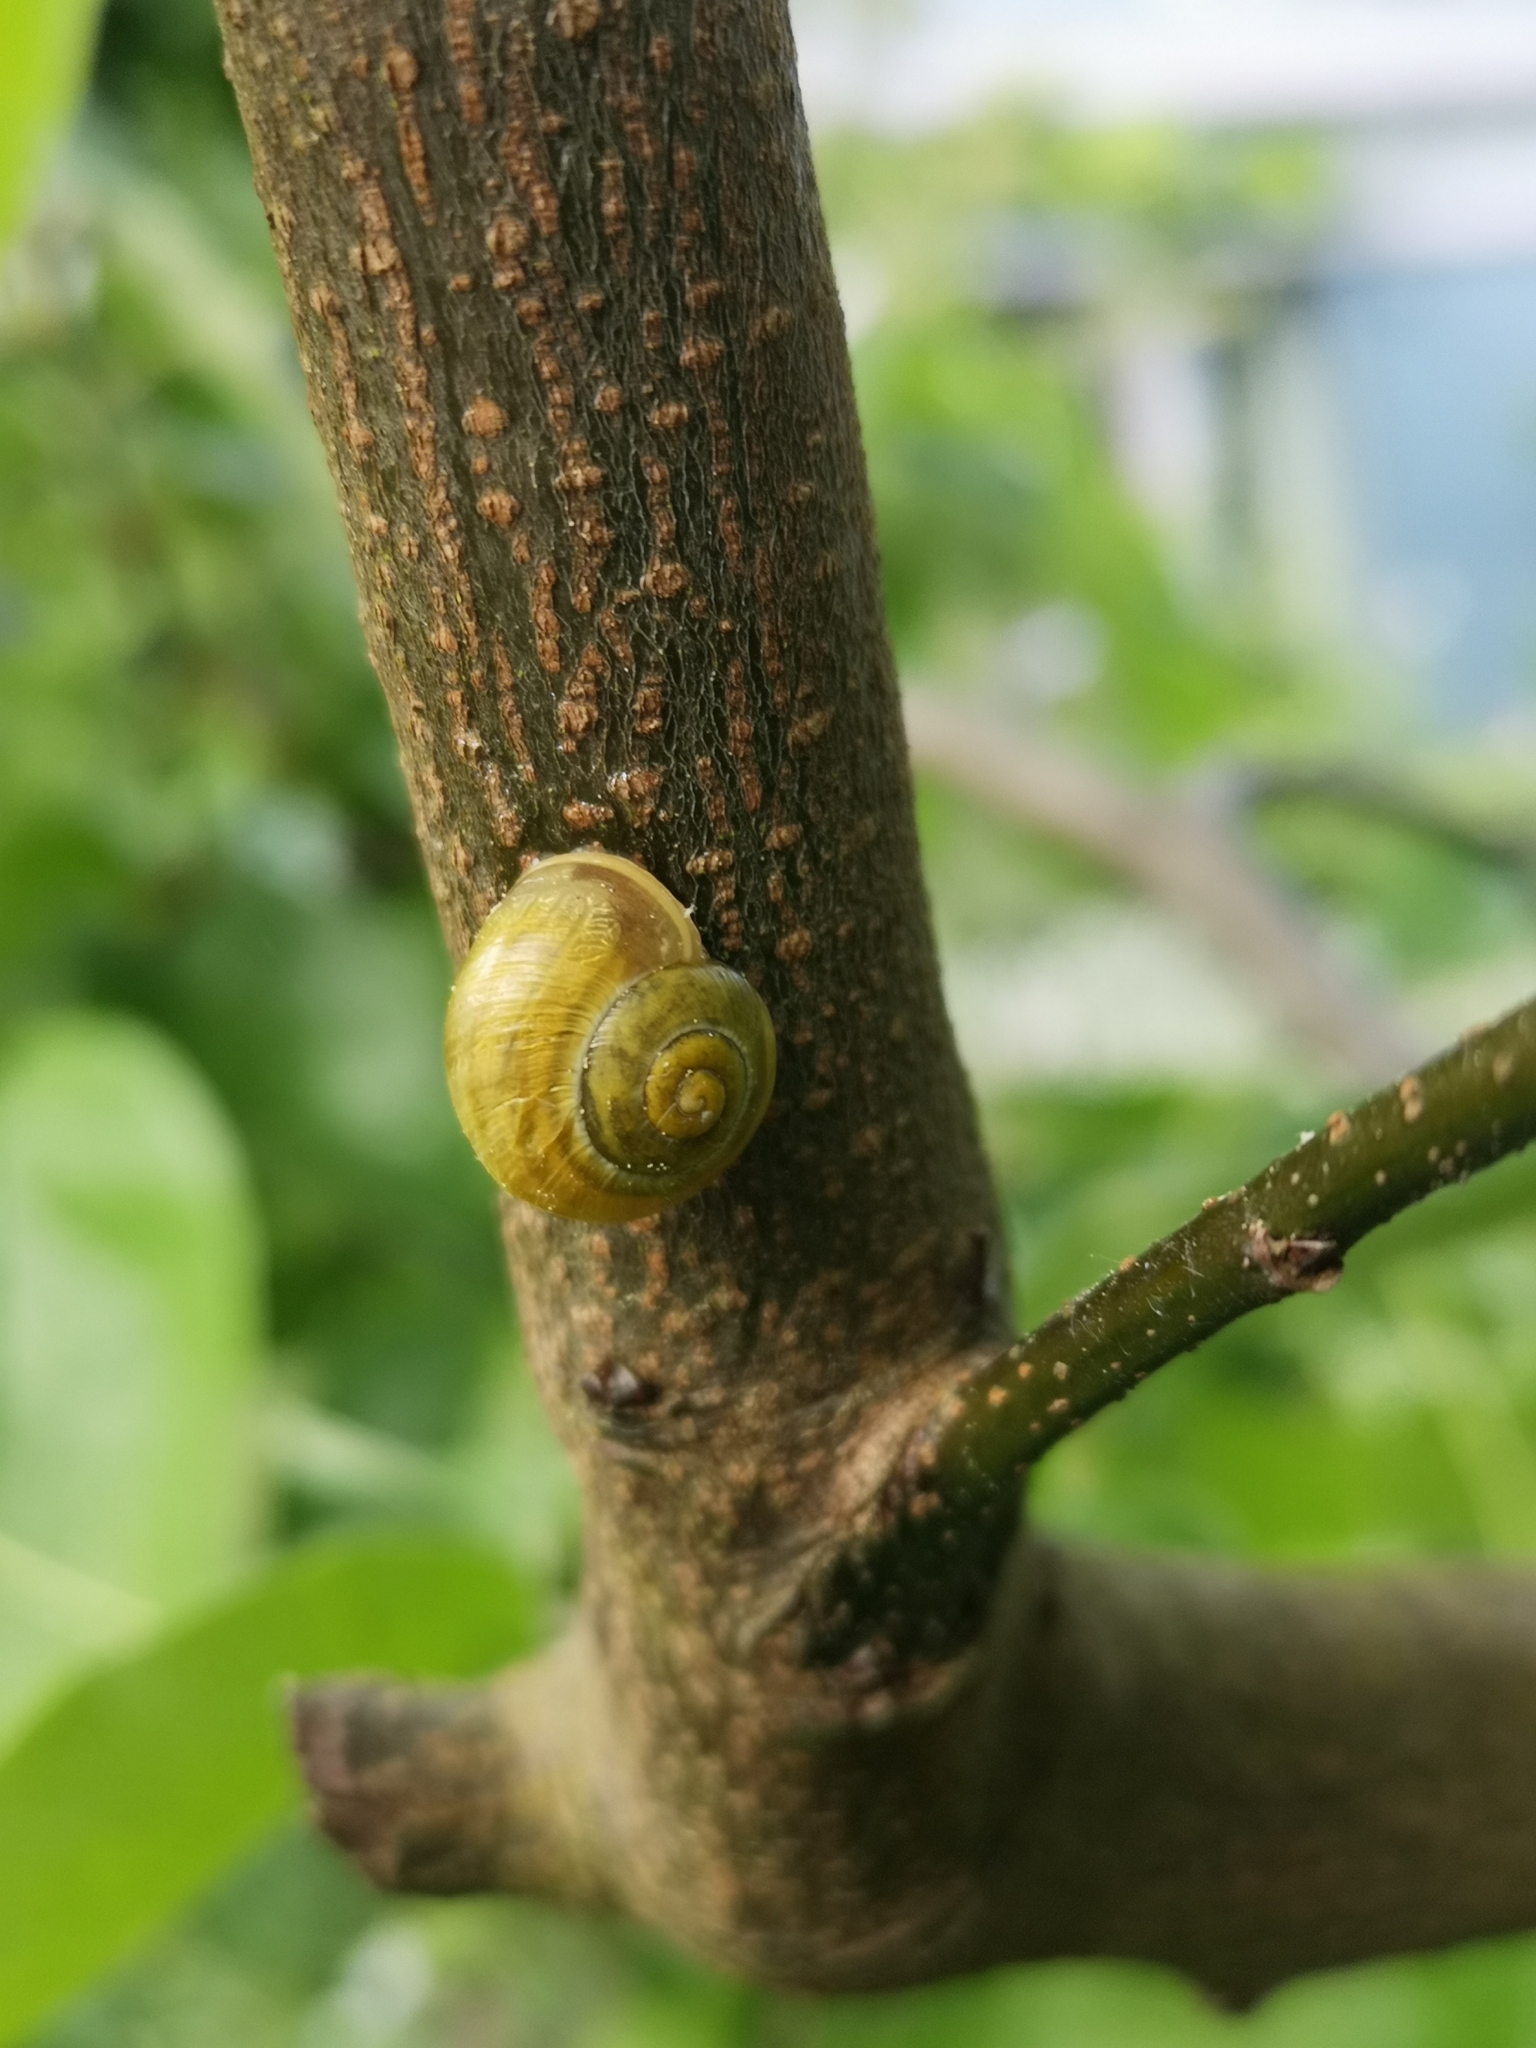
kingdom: Animalia
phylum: Mollusca
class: Gastropoda
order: Stylommatophora
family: Helicidae
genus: Cepaea
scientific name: Cepaea hortensis
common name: White-lip gardensnail
